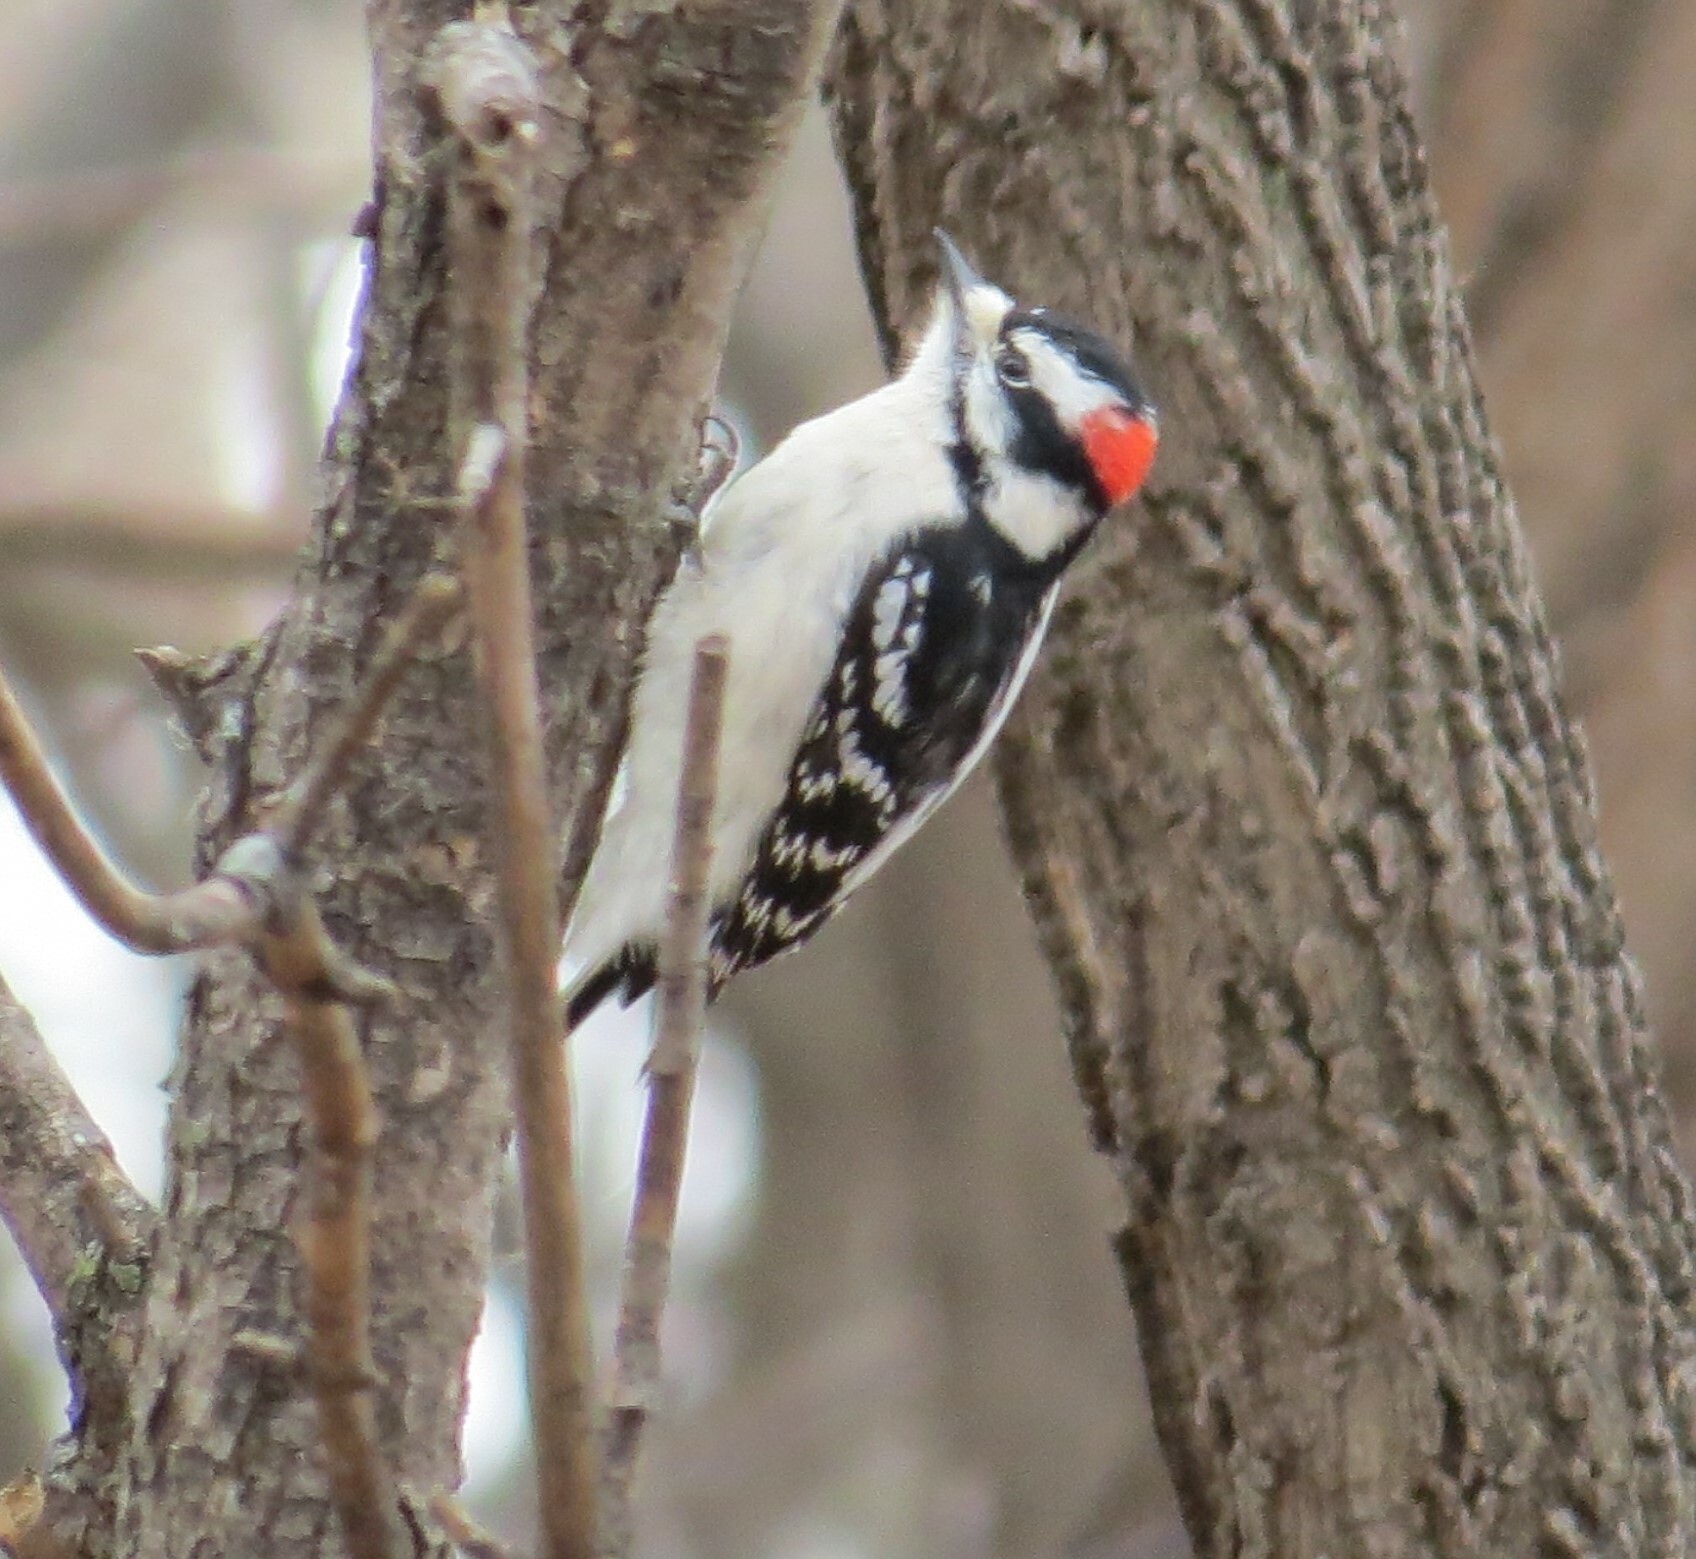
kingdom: Animalia
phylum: Chordata
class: Aves
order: Piciformes
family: Picidae
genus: Dryobates
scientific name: Dryobates pubescens
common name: Downy woodpecker
